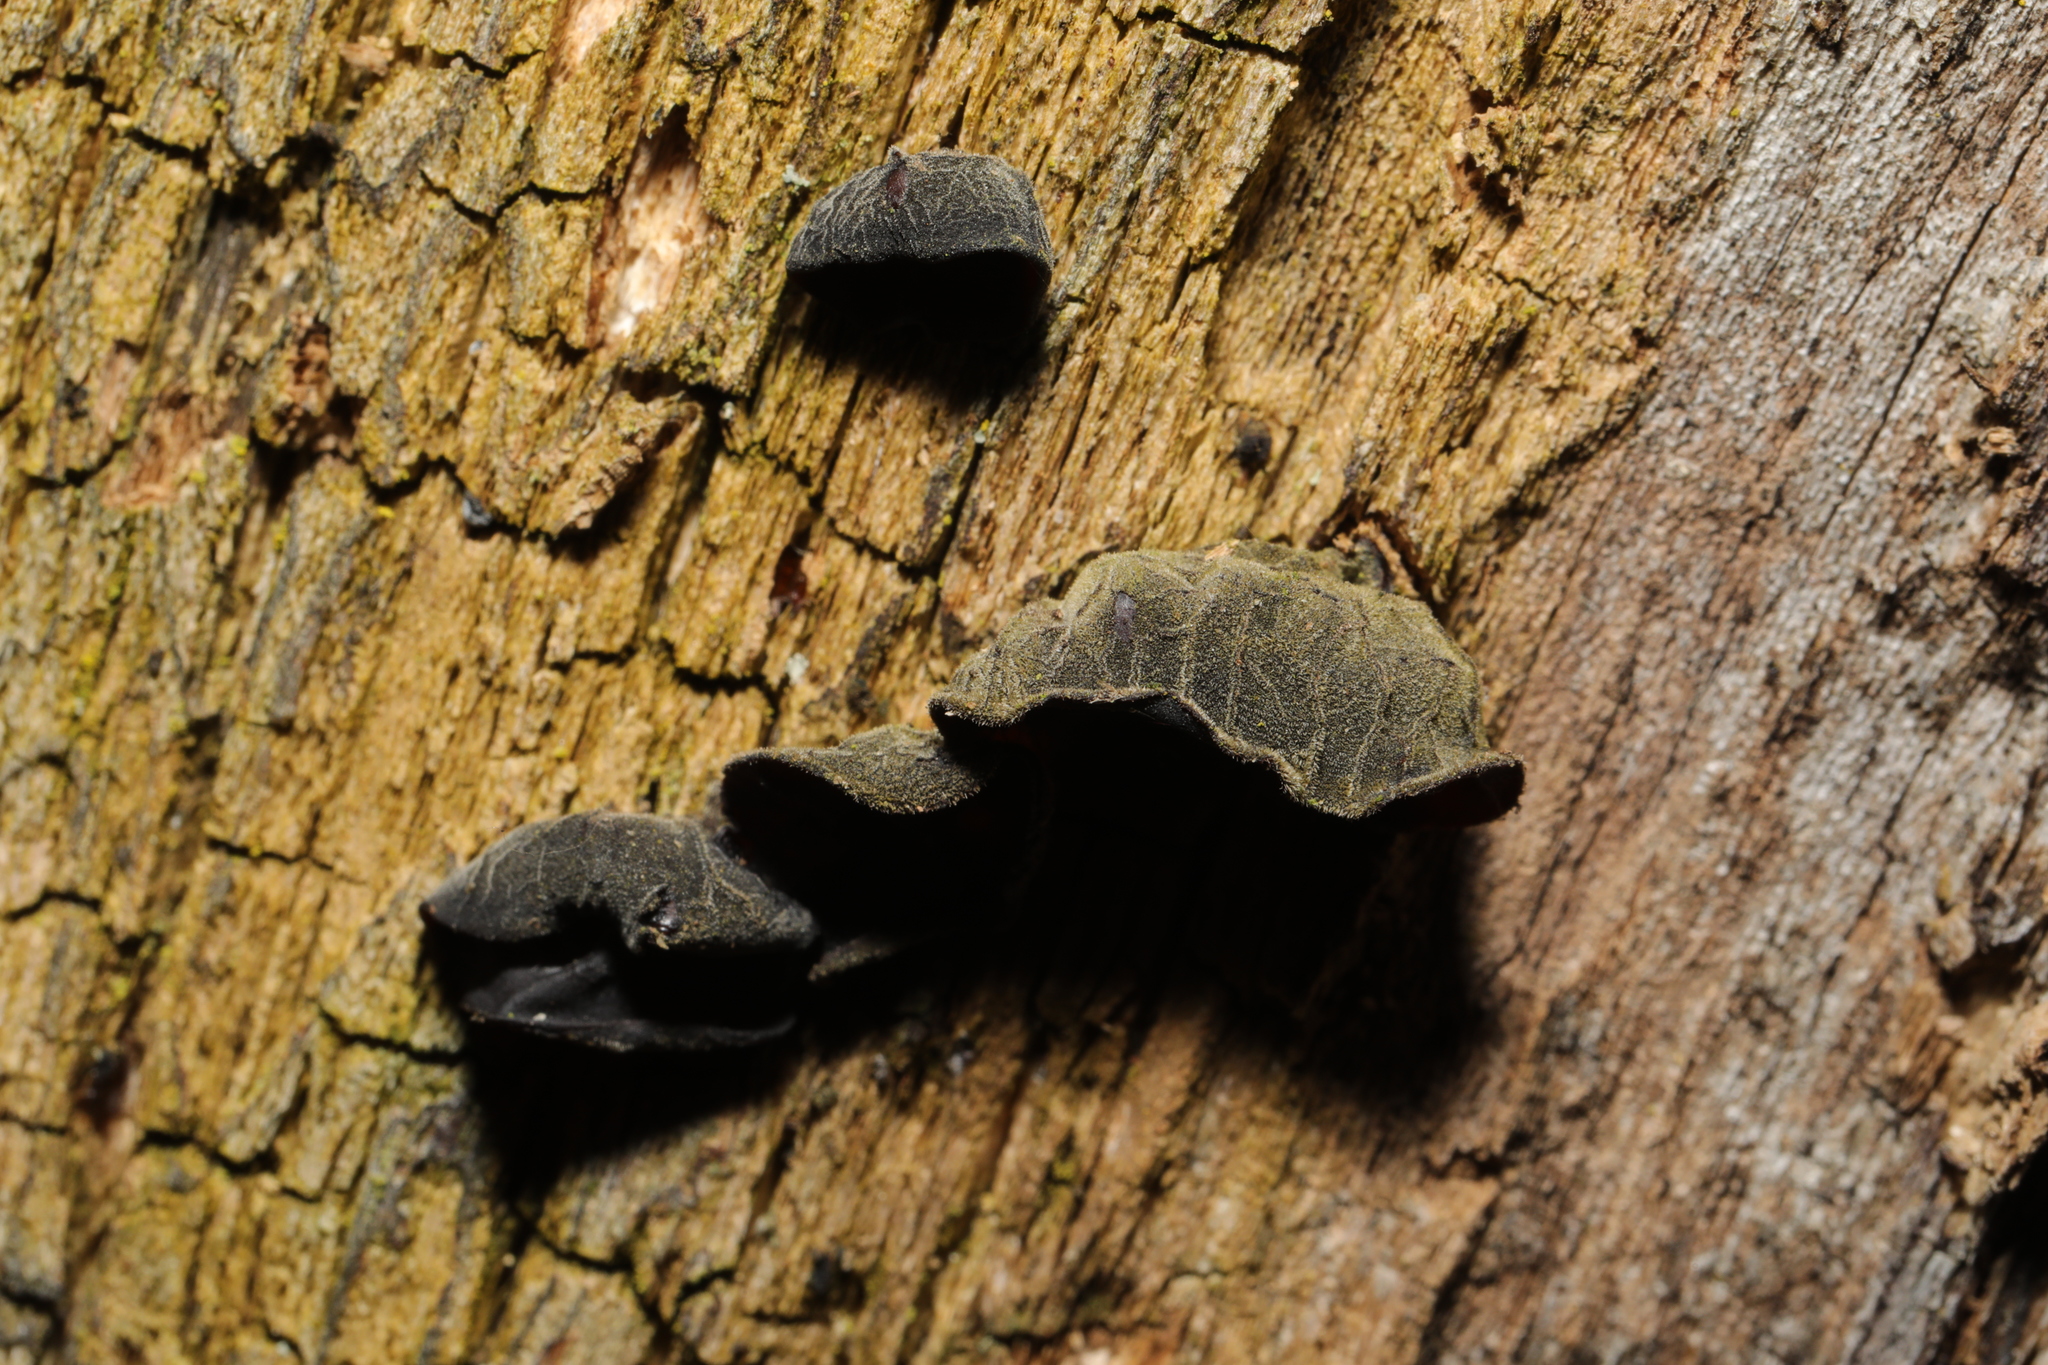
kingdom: Fungi
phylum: Basidiomycota
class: Agaricomycetes
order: Auriculariales
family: Auriculariaceae
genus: Auricularia
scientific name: Auricularia auricula-judae
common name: Jelly ear
